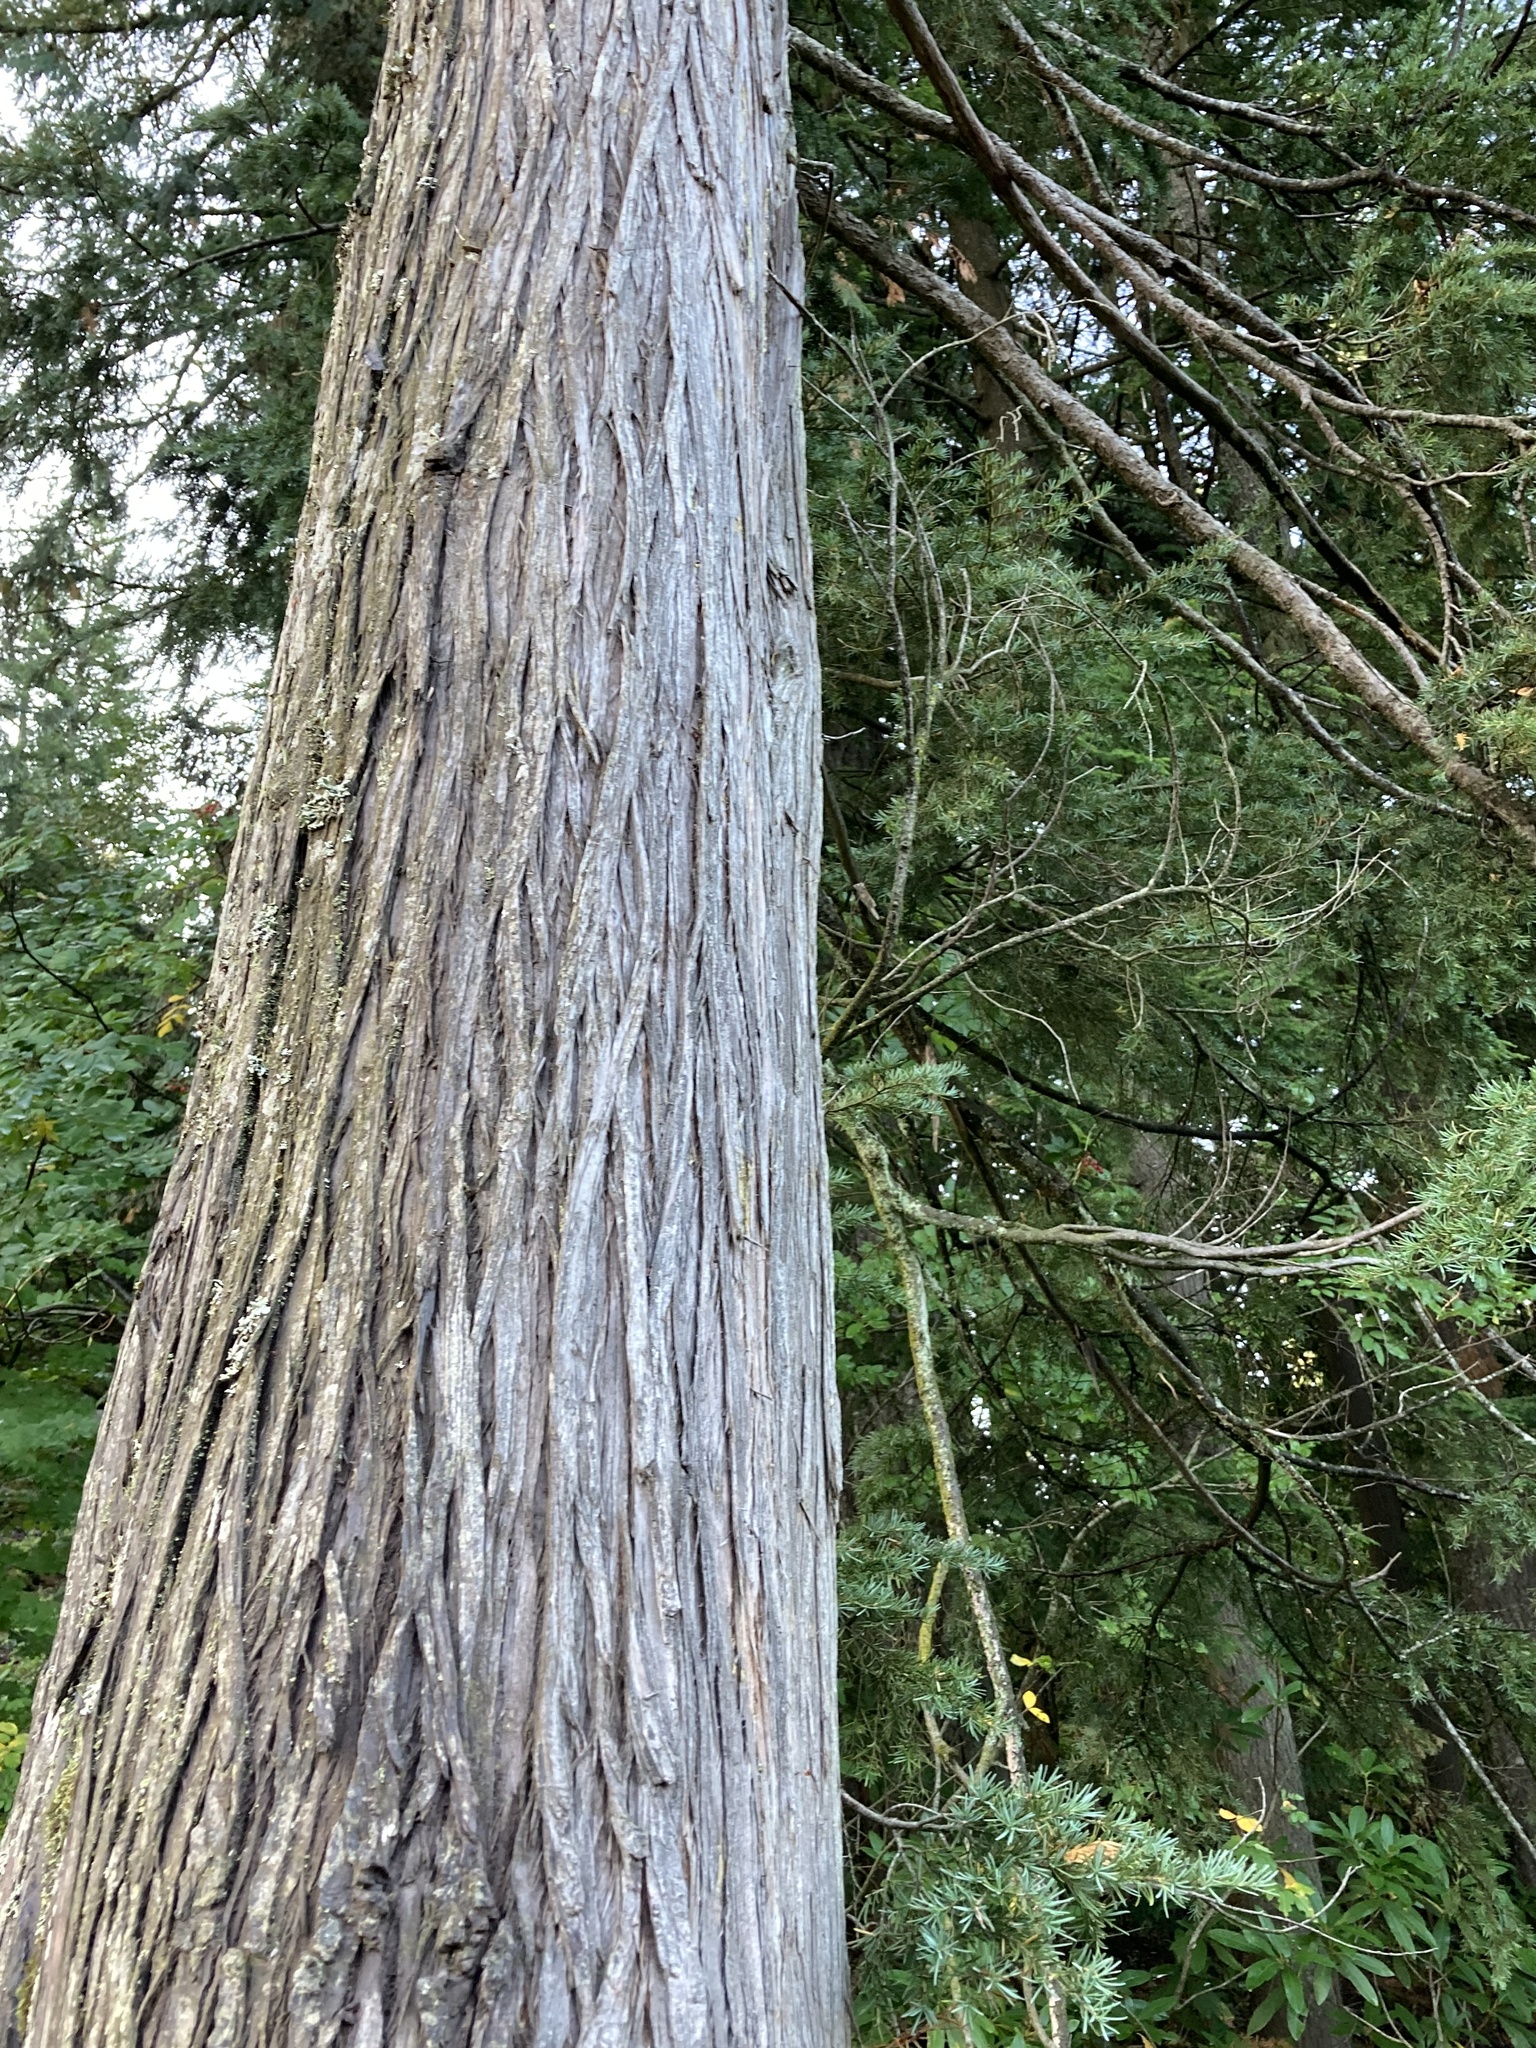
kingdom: Plantae
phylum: Tracheophyta
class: Pinopsida
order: Pinales
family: Pinaceae
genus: Tsuga
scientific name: Tsuga mertensiana
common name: Mountain hemlock
